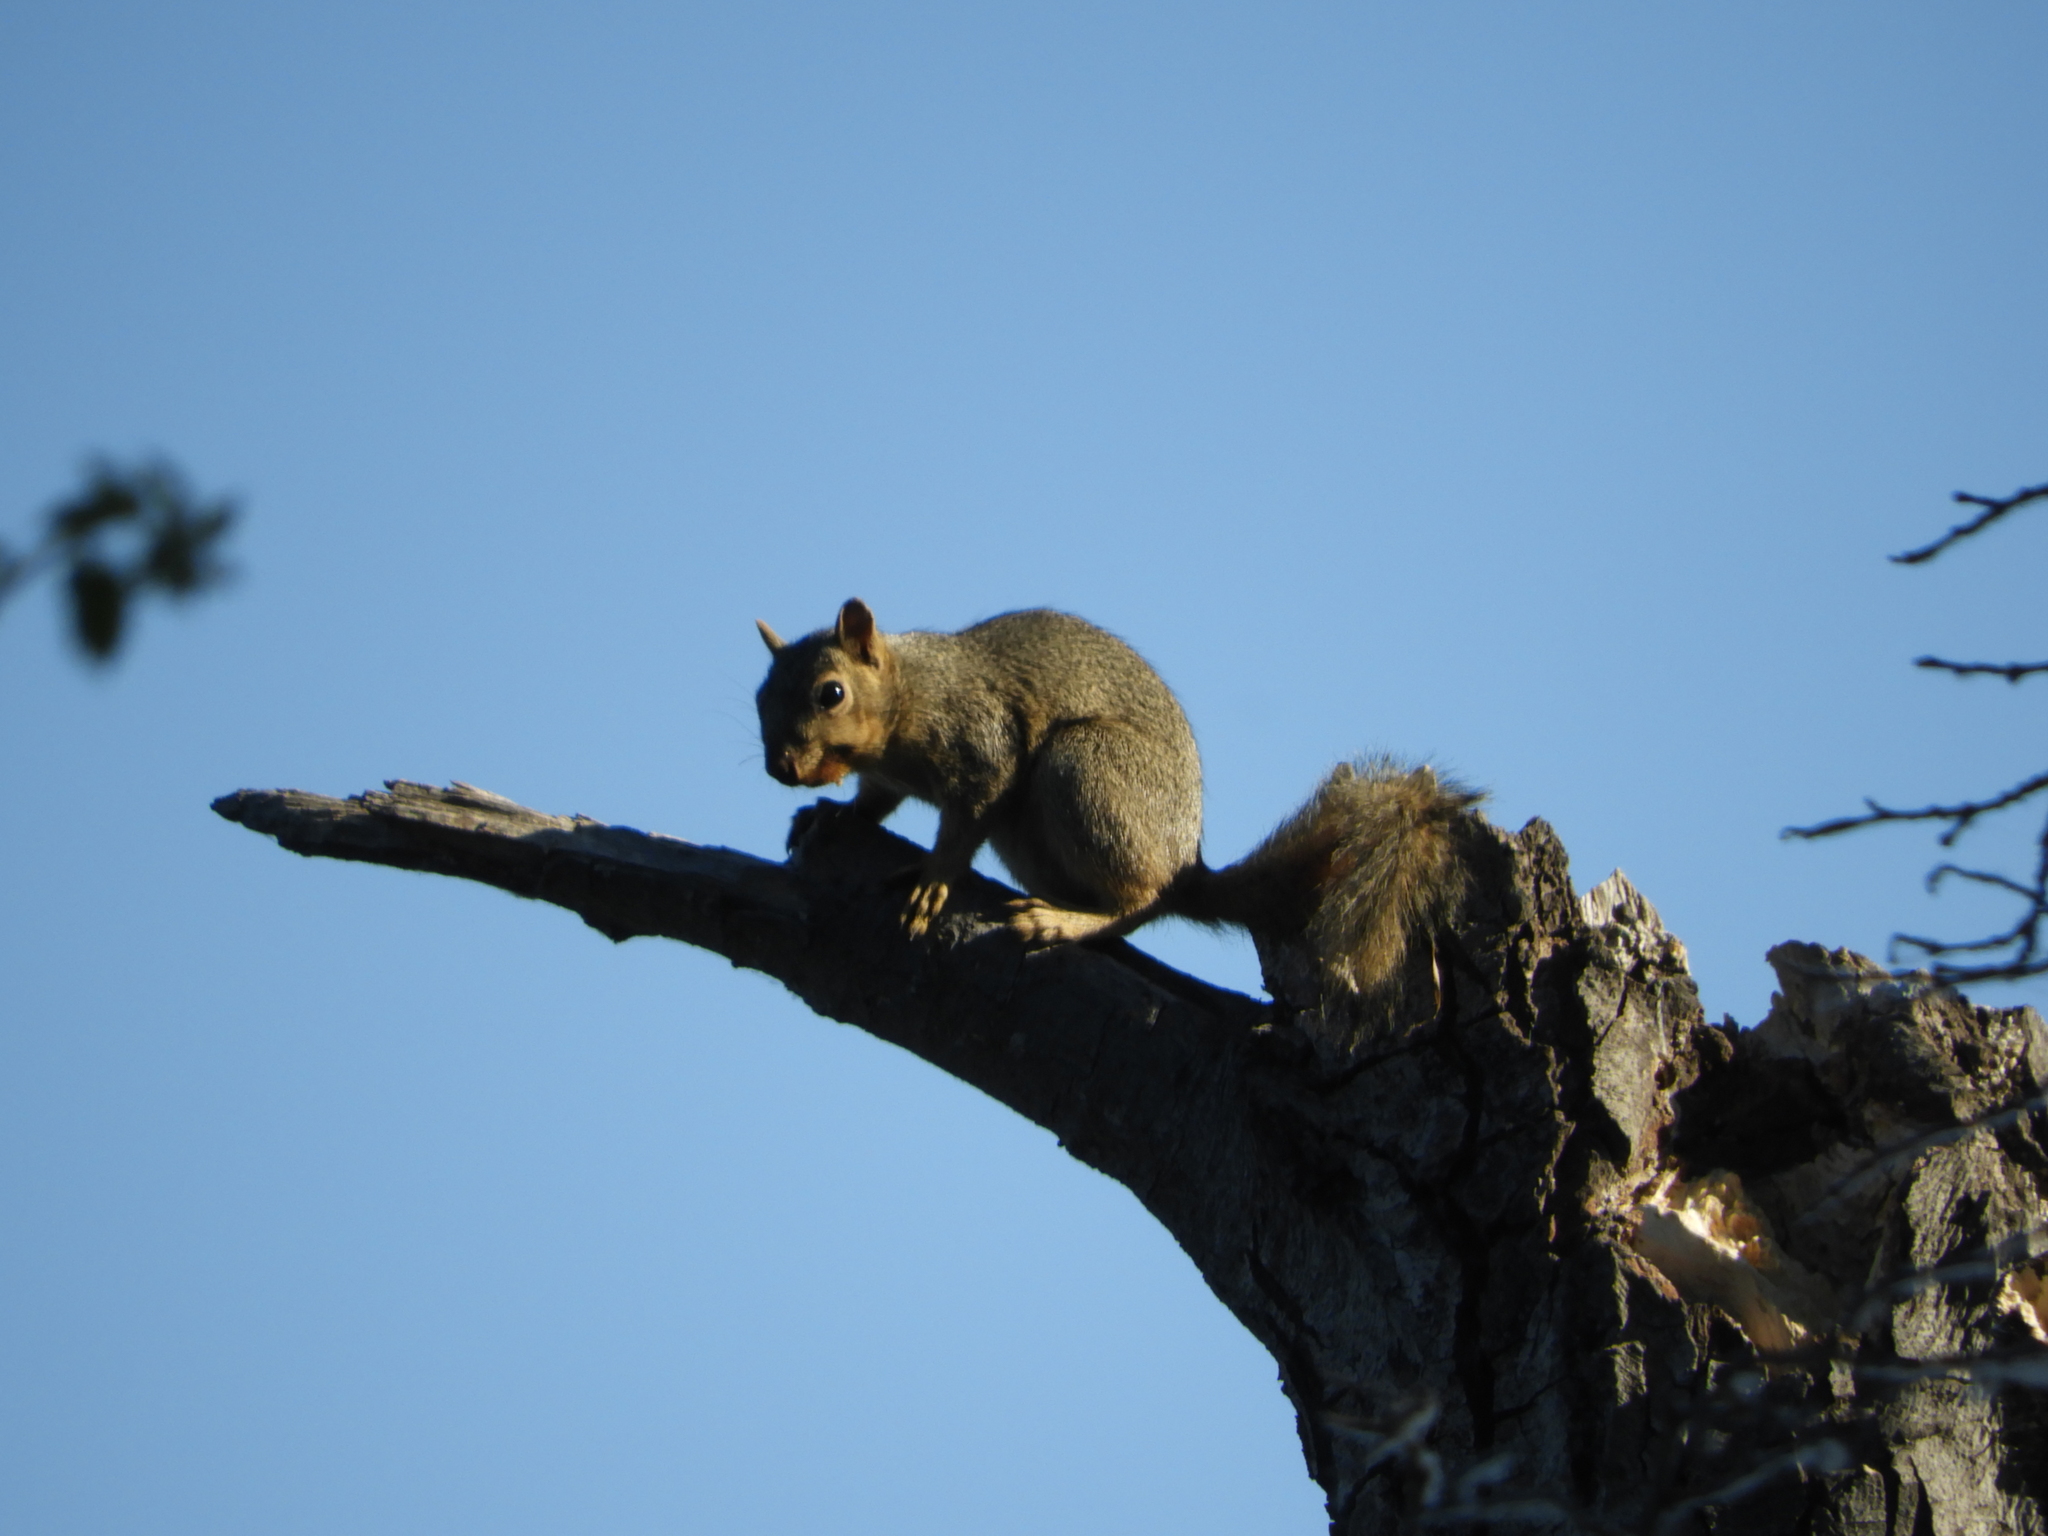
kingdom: Animalia
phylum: Chordata
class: Mammalia
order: Rodentia
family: Sciuridae
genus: Sciurus
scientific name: Sciurus niger
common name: Fox squirrel
